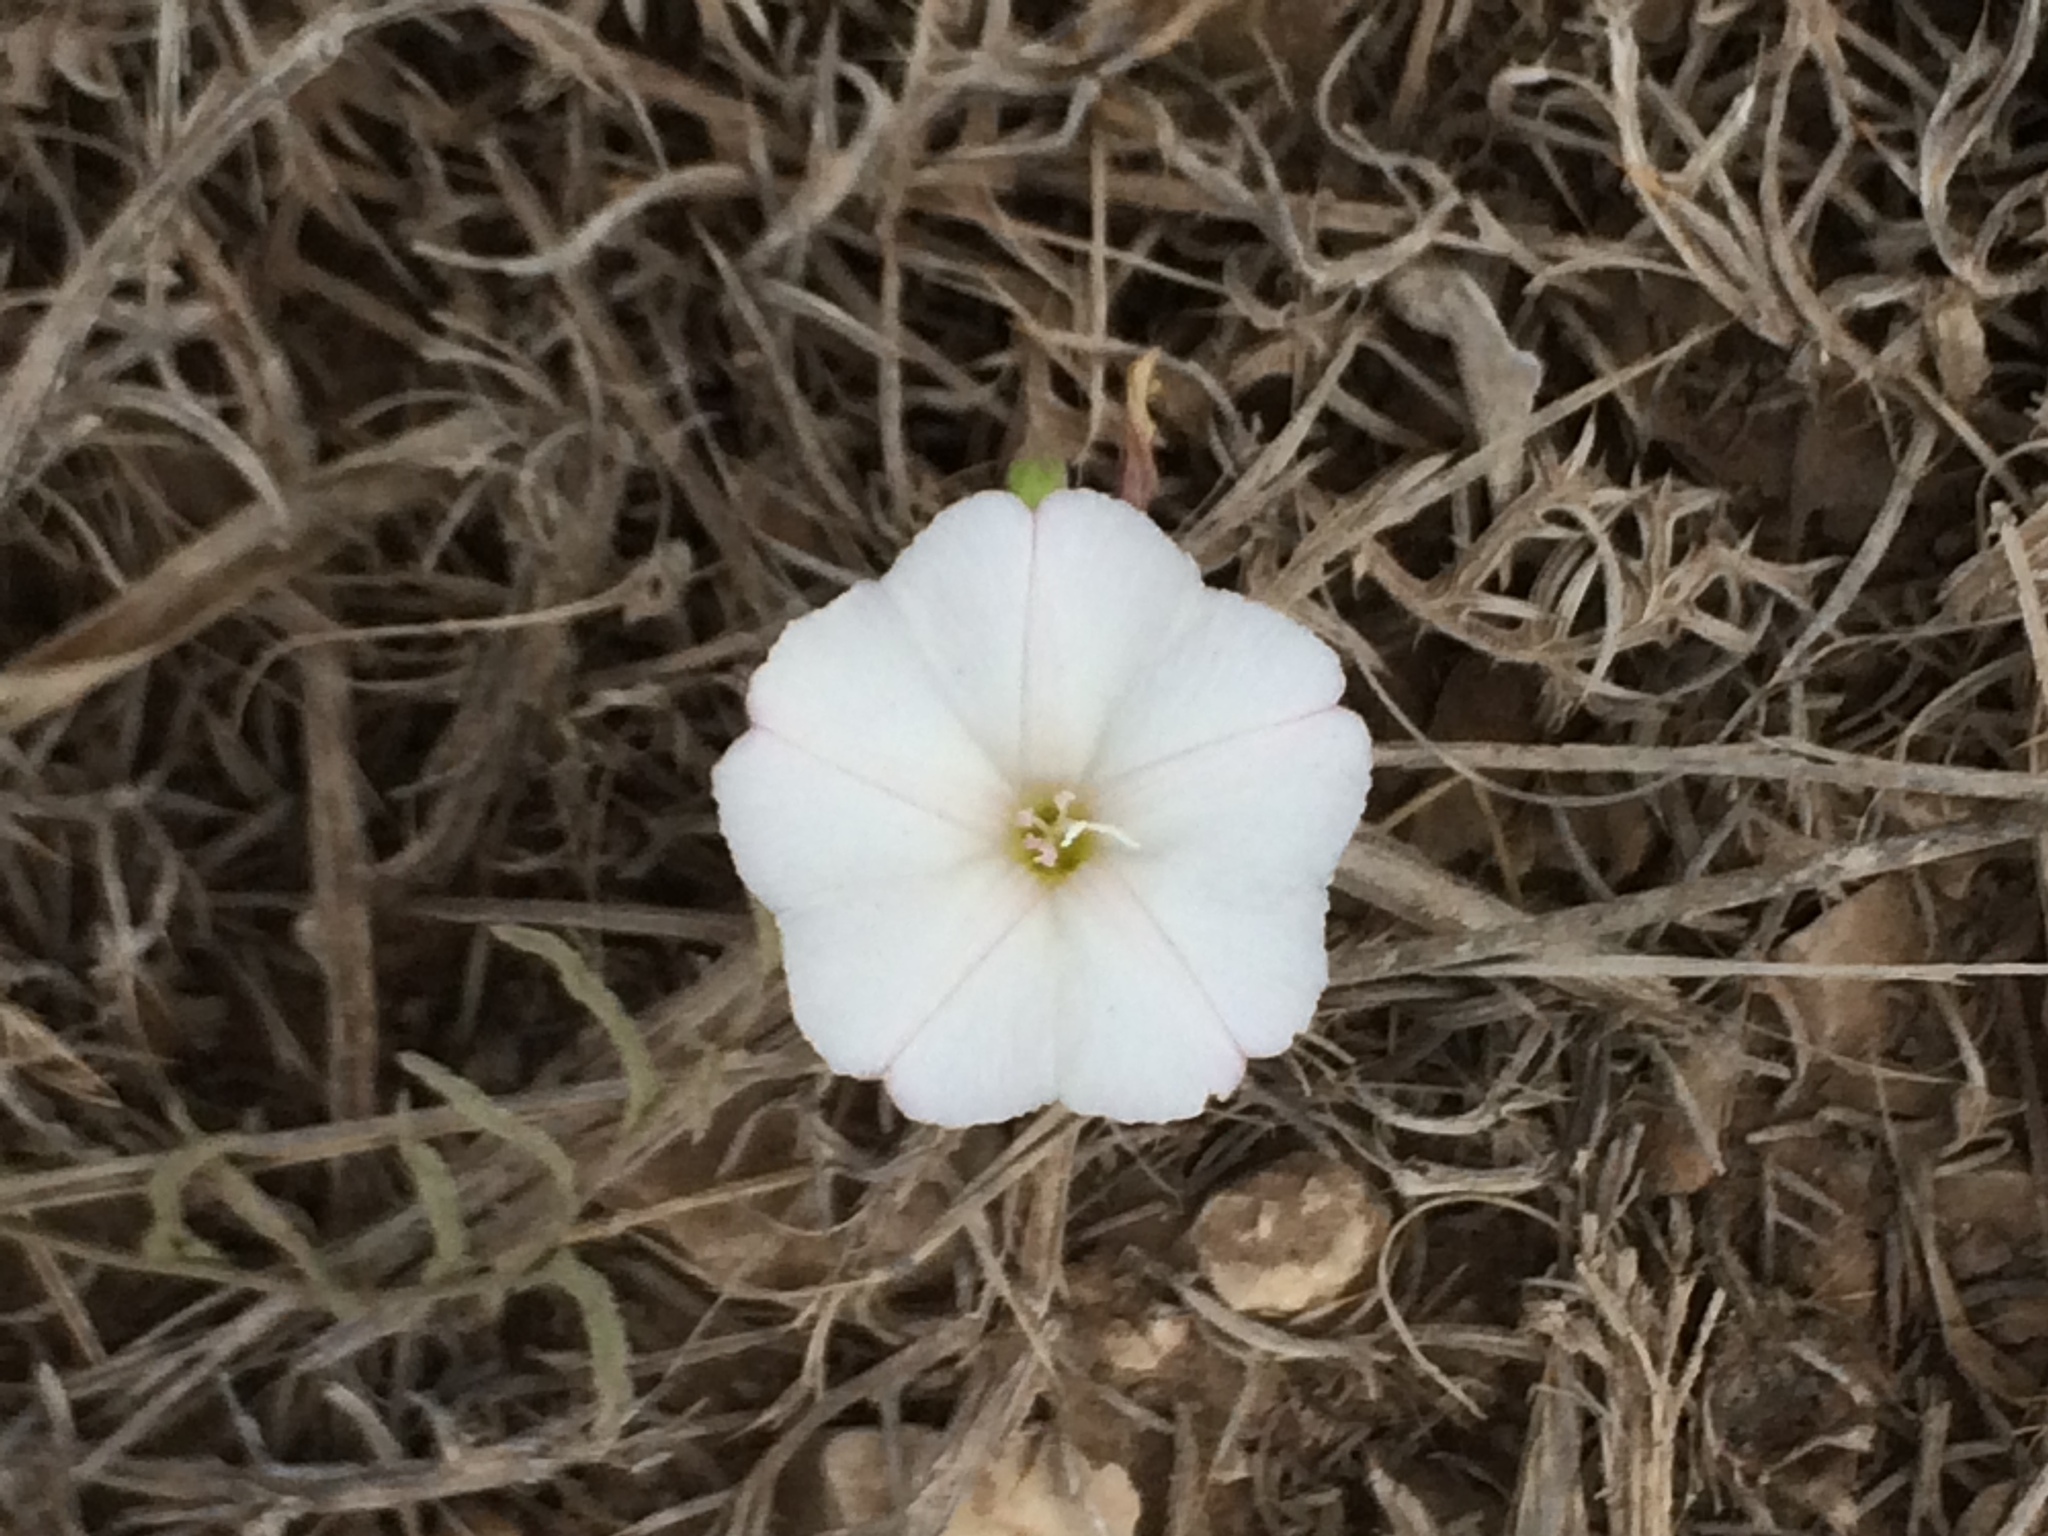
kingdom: Plantae
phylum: Tracheophyta
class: Magnoliopsida
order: Solanales
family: Convolvulaceae
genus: Convolvulus
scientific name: Convolvulus arvensis
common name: Field bindweed
